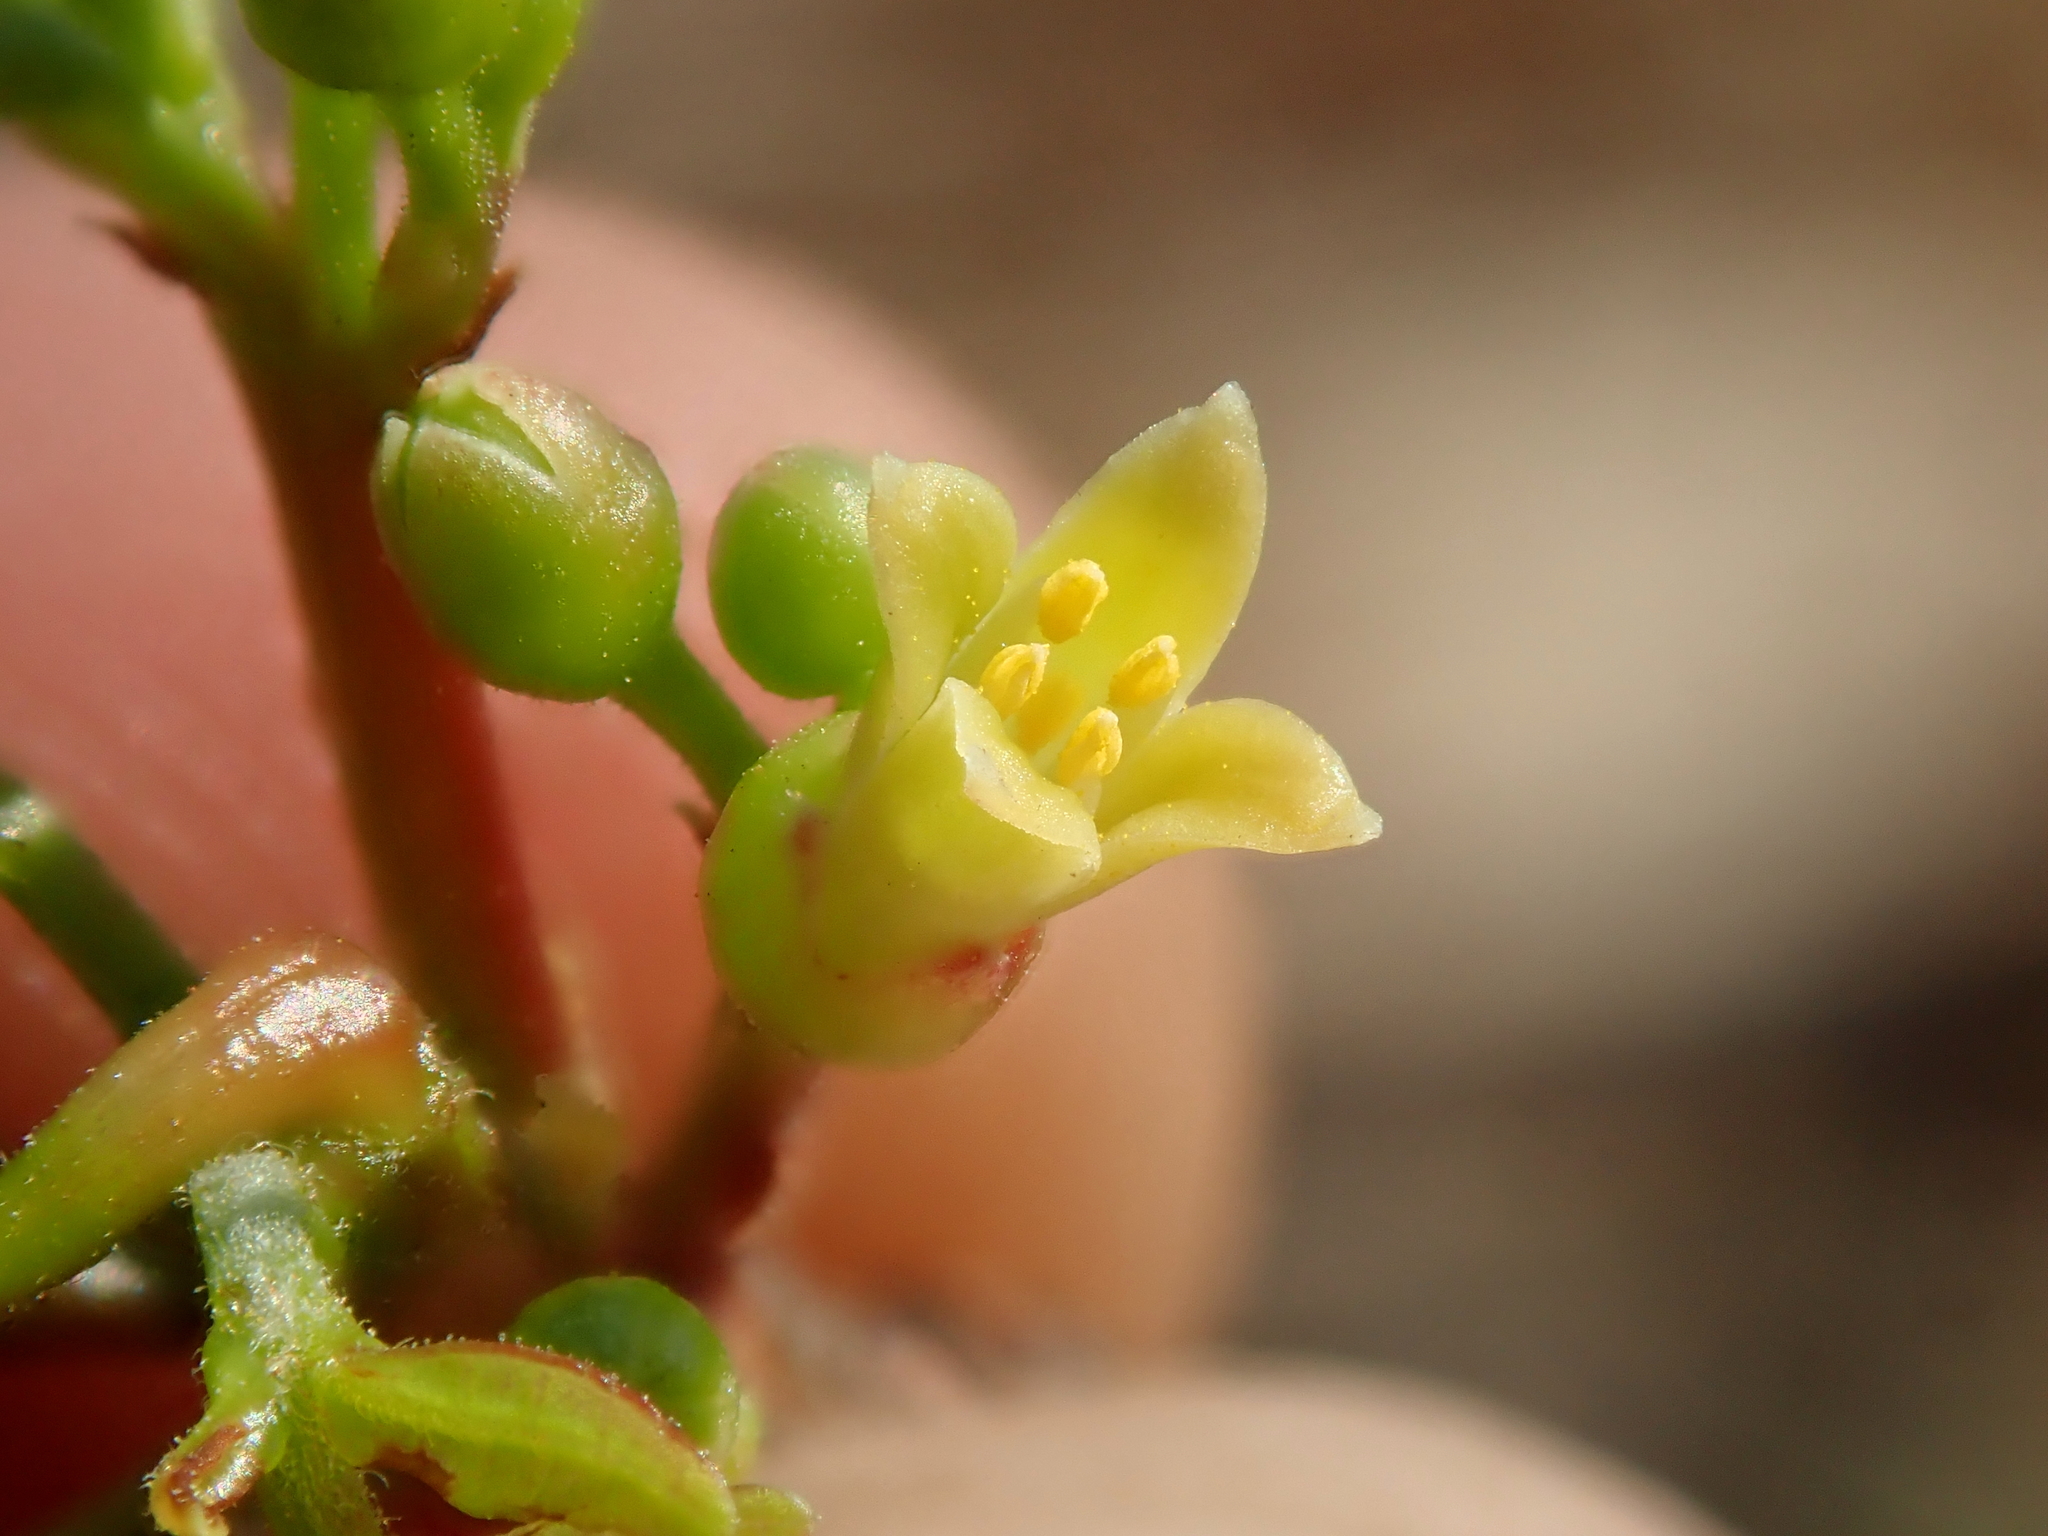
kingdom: Plantae
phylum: Tracheophyta
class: Magnoliopsida
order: Sapindales
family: Burseraceae
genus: Bursera
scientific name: Bursera leptophloeos
